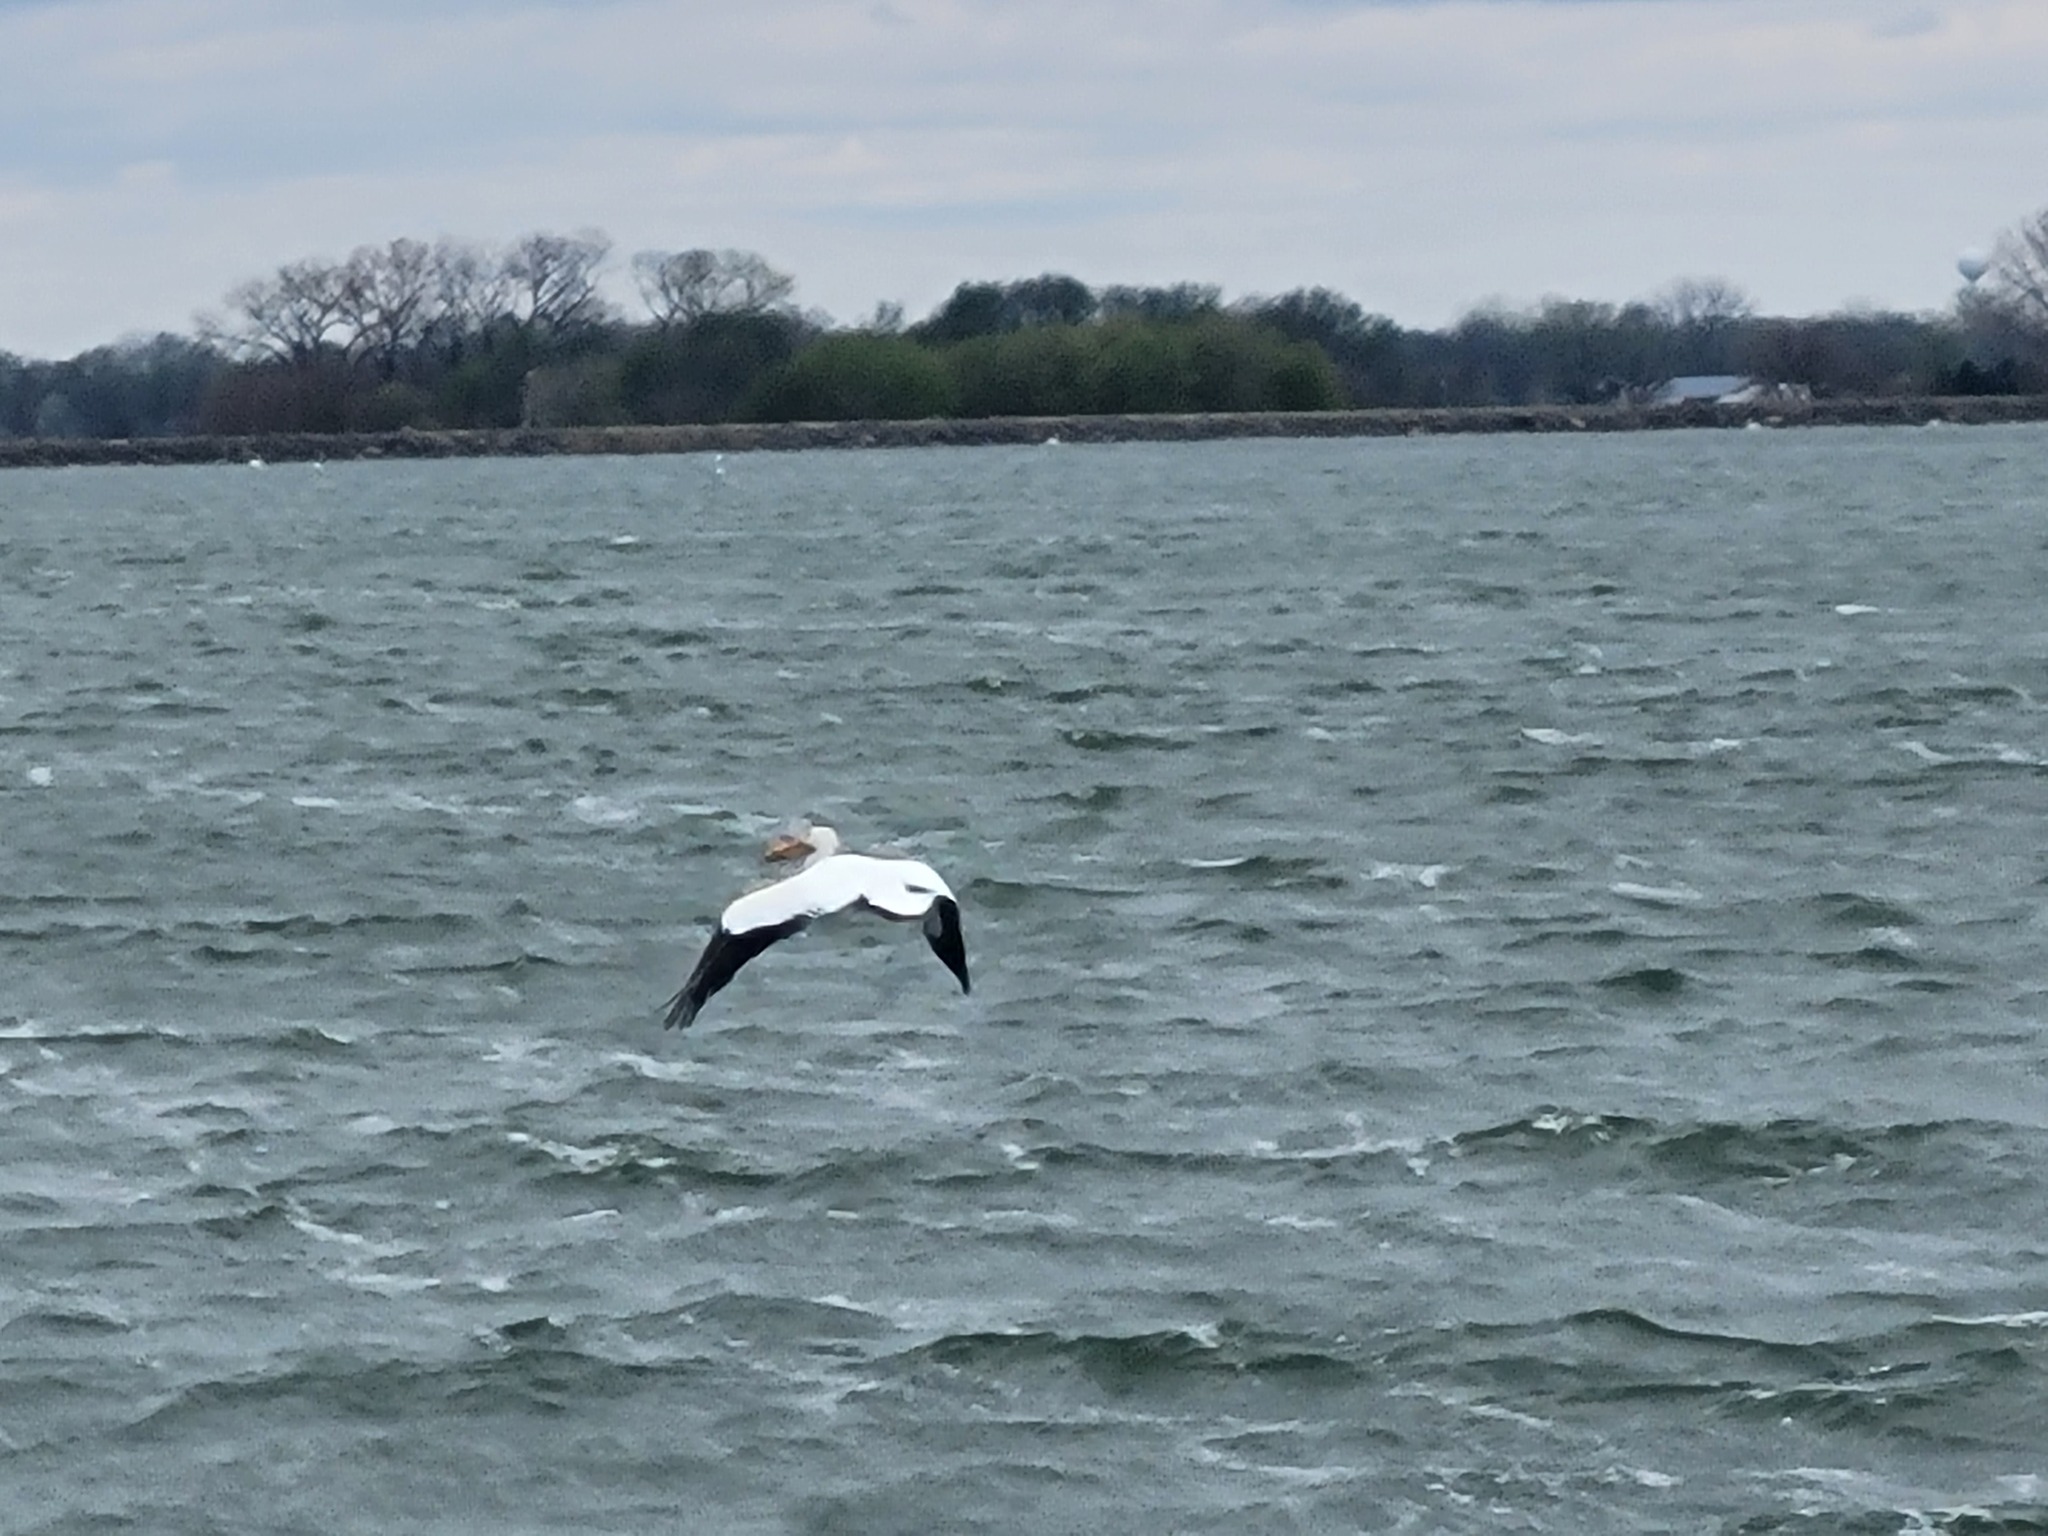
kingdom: Animalia
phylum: Chordata
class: Aves
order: Pelecaniformes
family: Pelecanidae
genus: Pelecanus
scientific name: Pelecanus erythrorhynchos
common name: American white pelican
